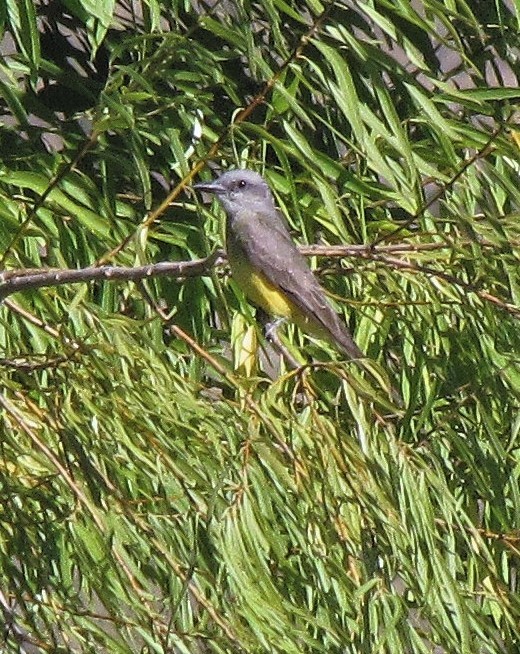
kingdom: Animalia
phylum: Chordata
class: Aves
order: Passeriformes
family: Tyrannidae
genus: Tyrannus
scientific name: Tyrannus melancholicus
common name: Tropical kingbird
